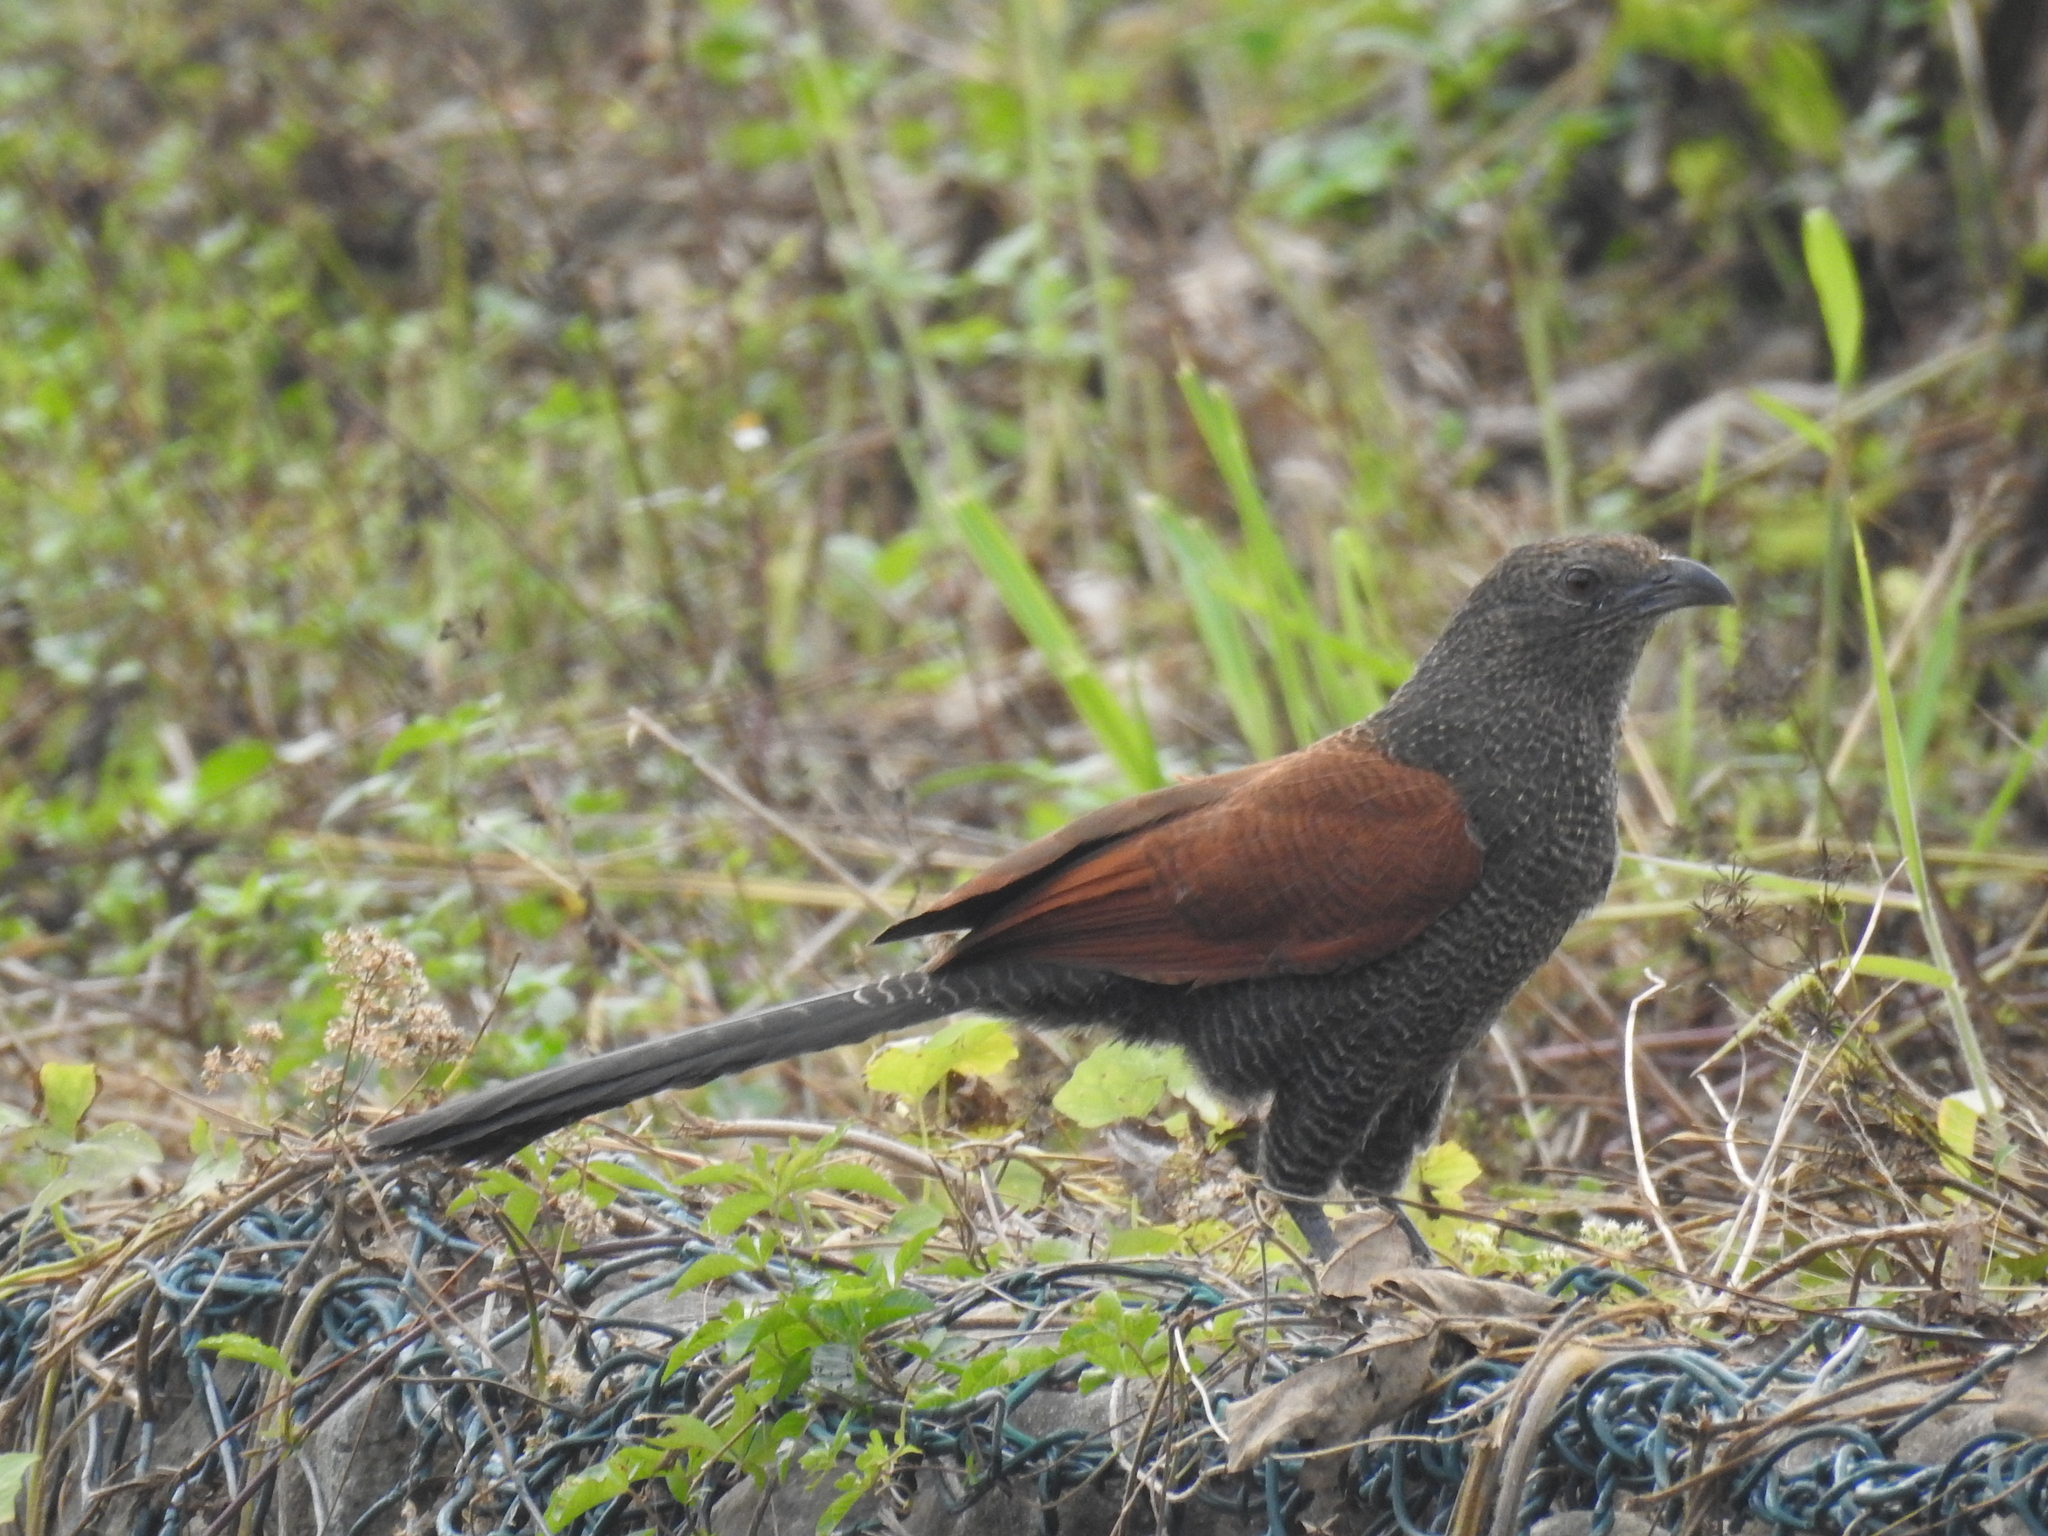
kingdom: Animalia
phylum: Chordata
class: Aves
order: Cuculiformes
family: Cuculidae
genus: Centropus
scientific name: Centropus sinensis
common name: Greater coucal
